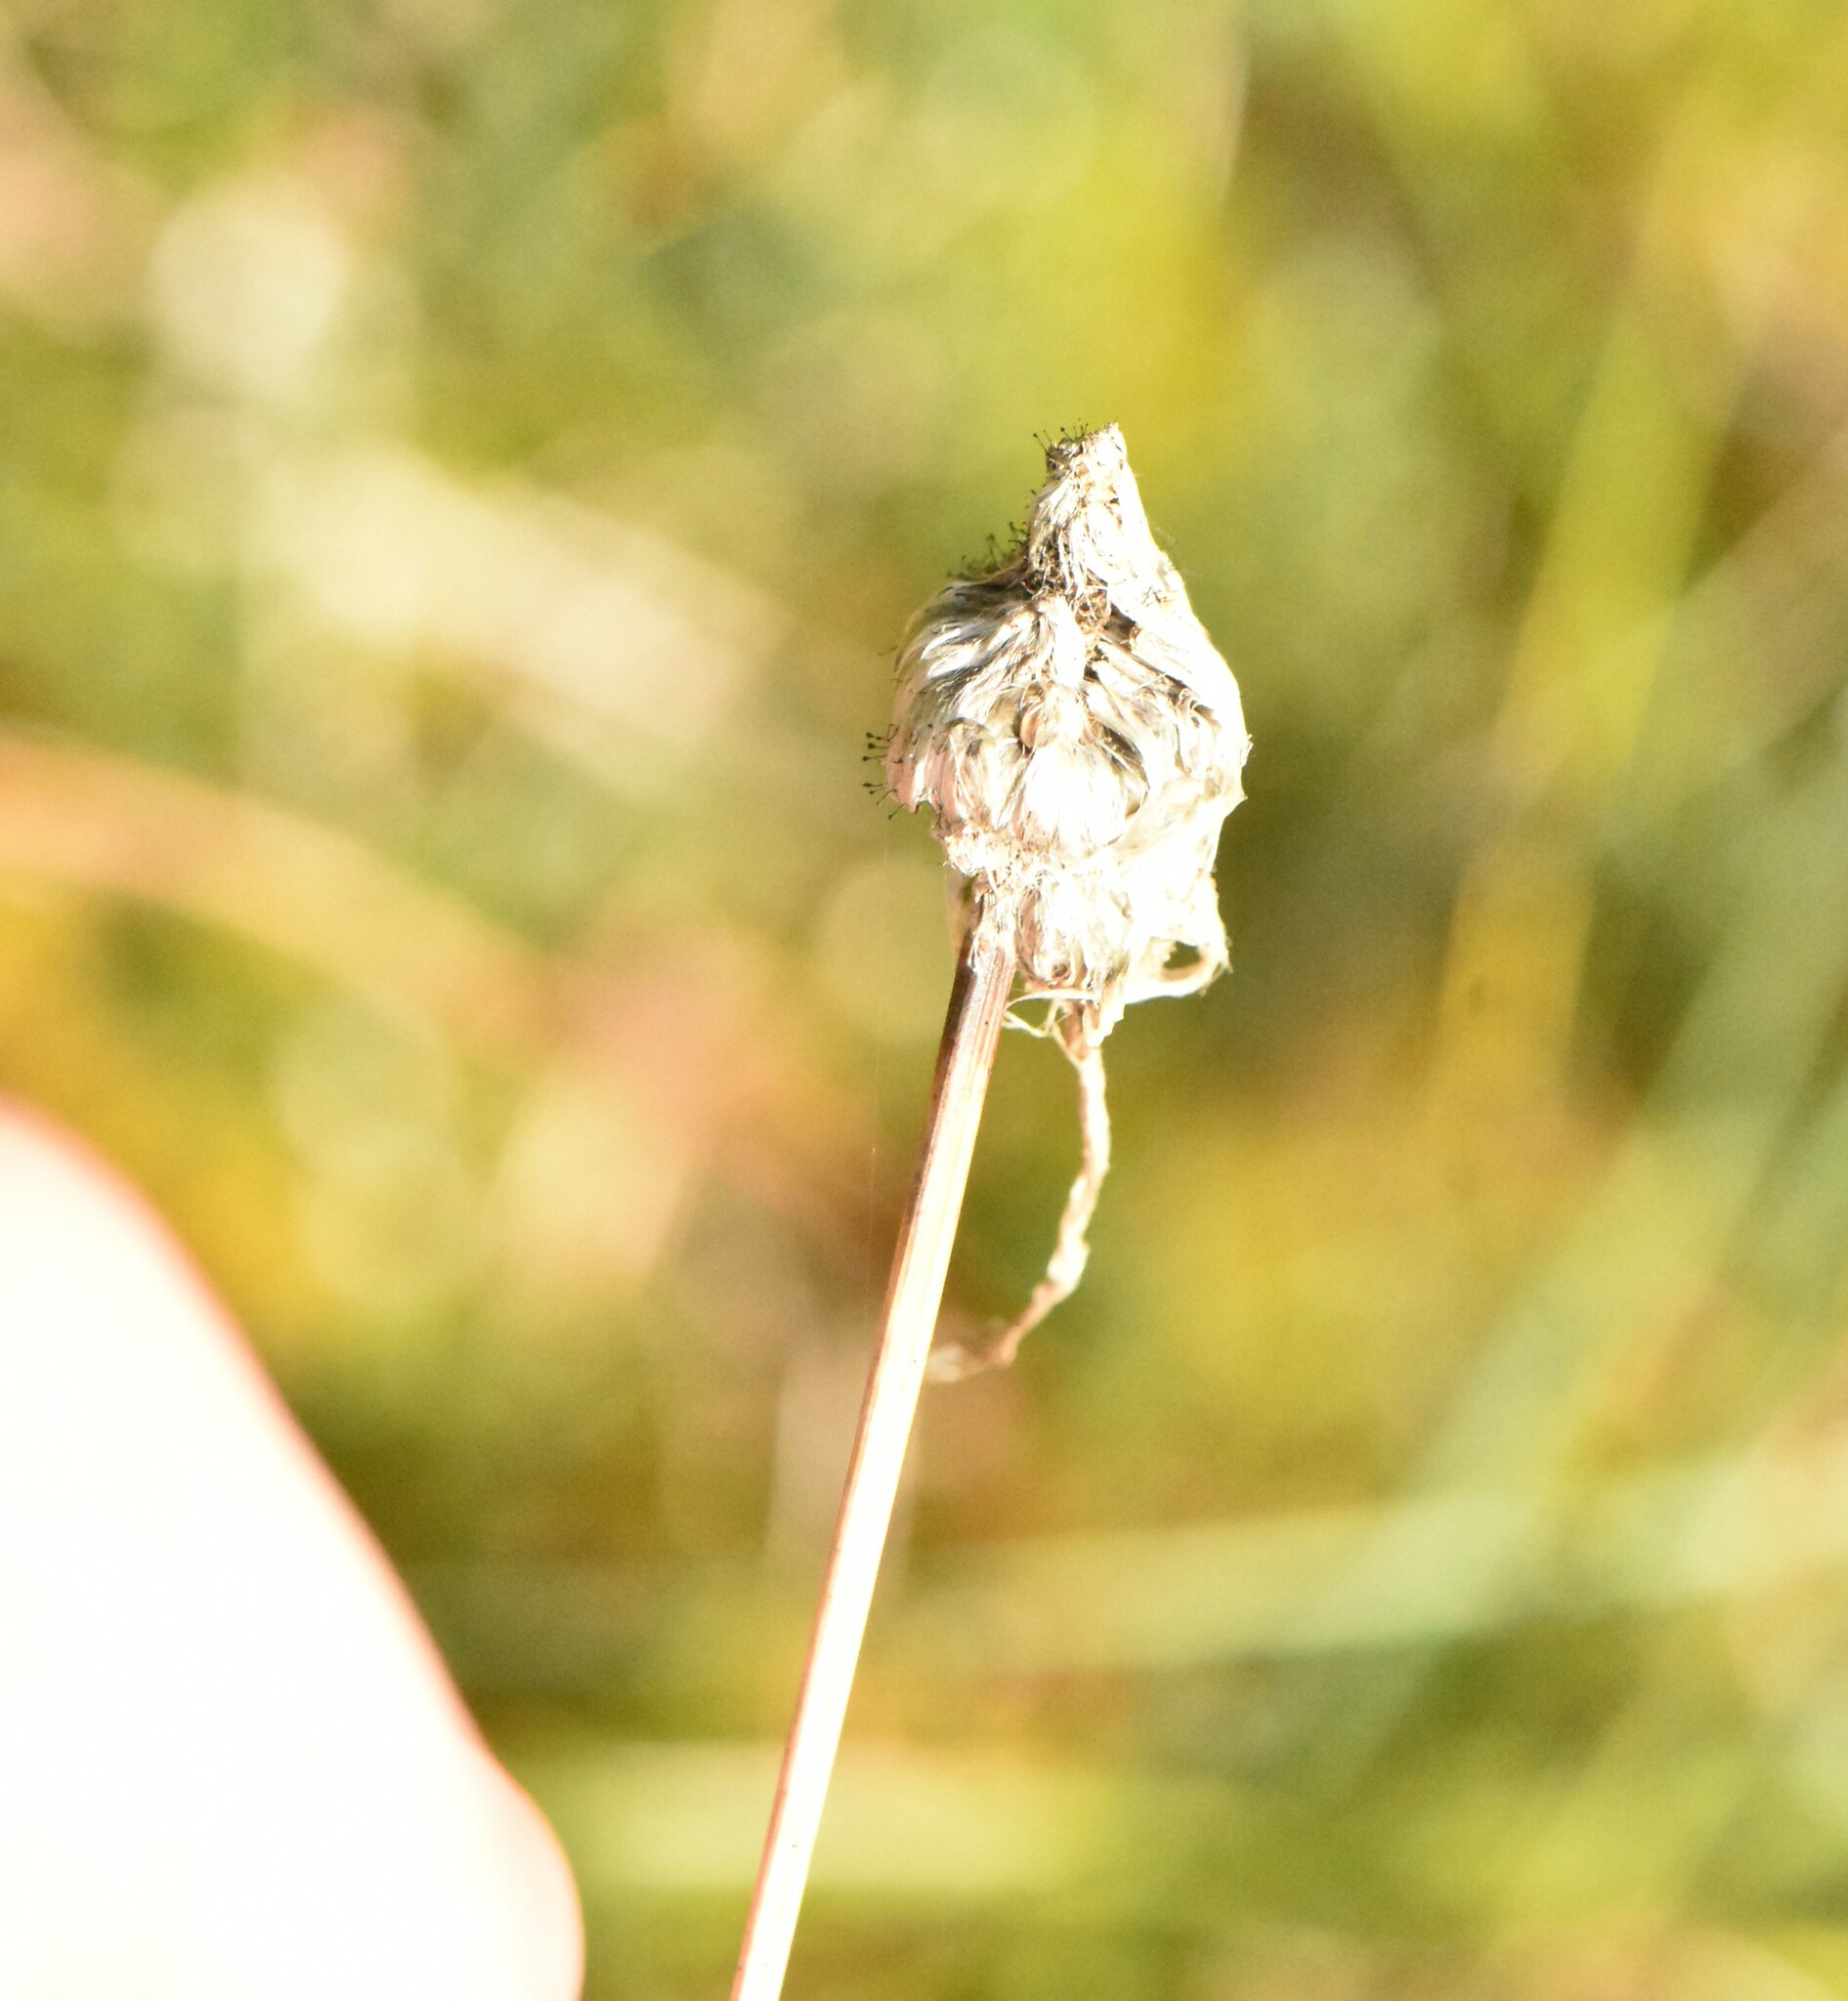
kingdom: Plantae
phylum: Tracheophyta
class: Liliopsida
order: Poales
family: Cyperaceae
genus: Eriophorum
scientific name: Eriophorum vaginatum
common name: Hare's-tail cottongrass
